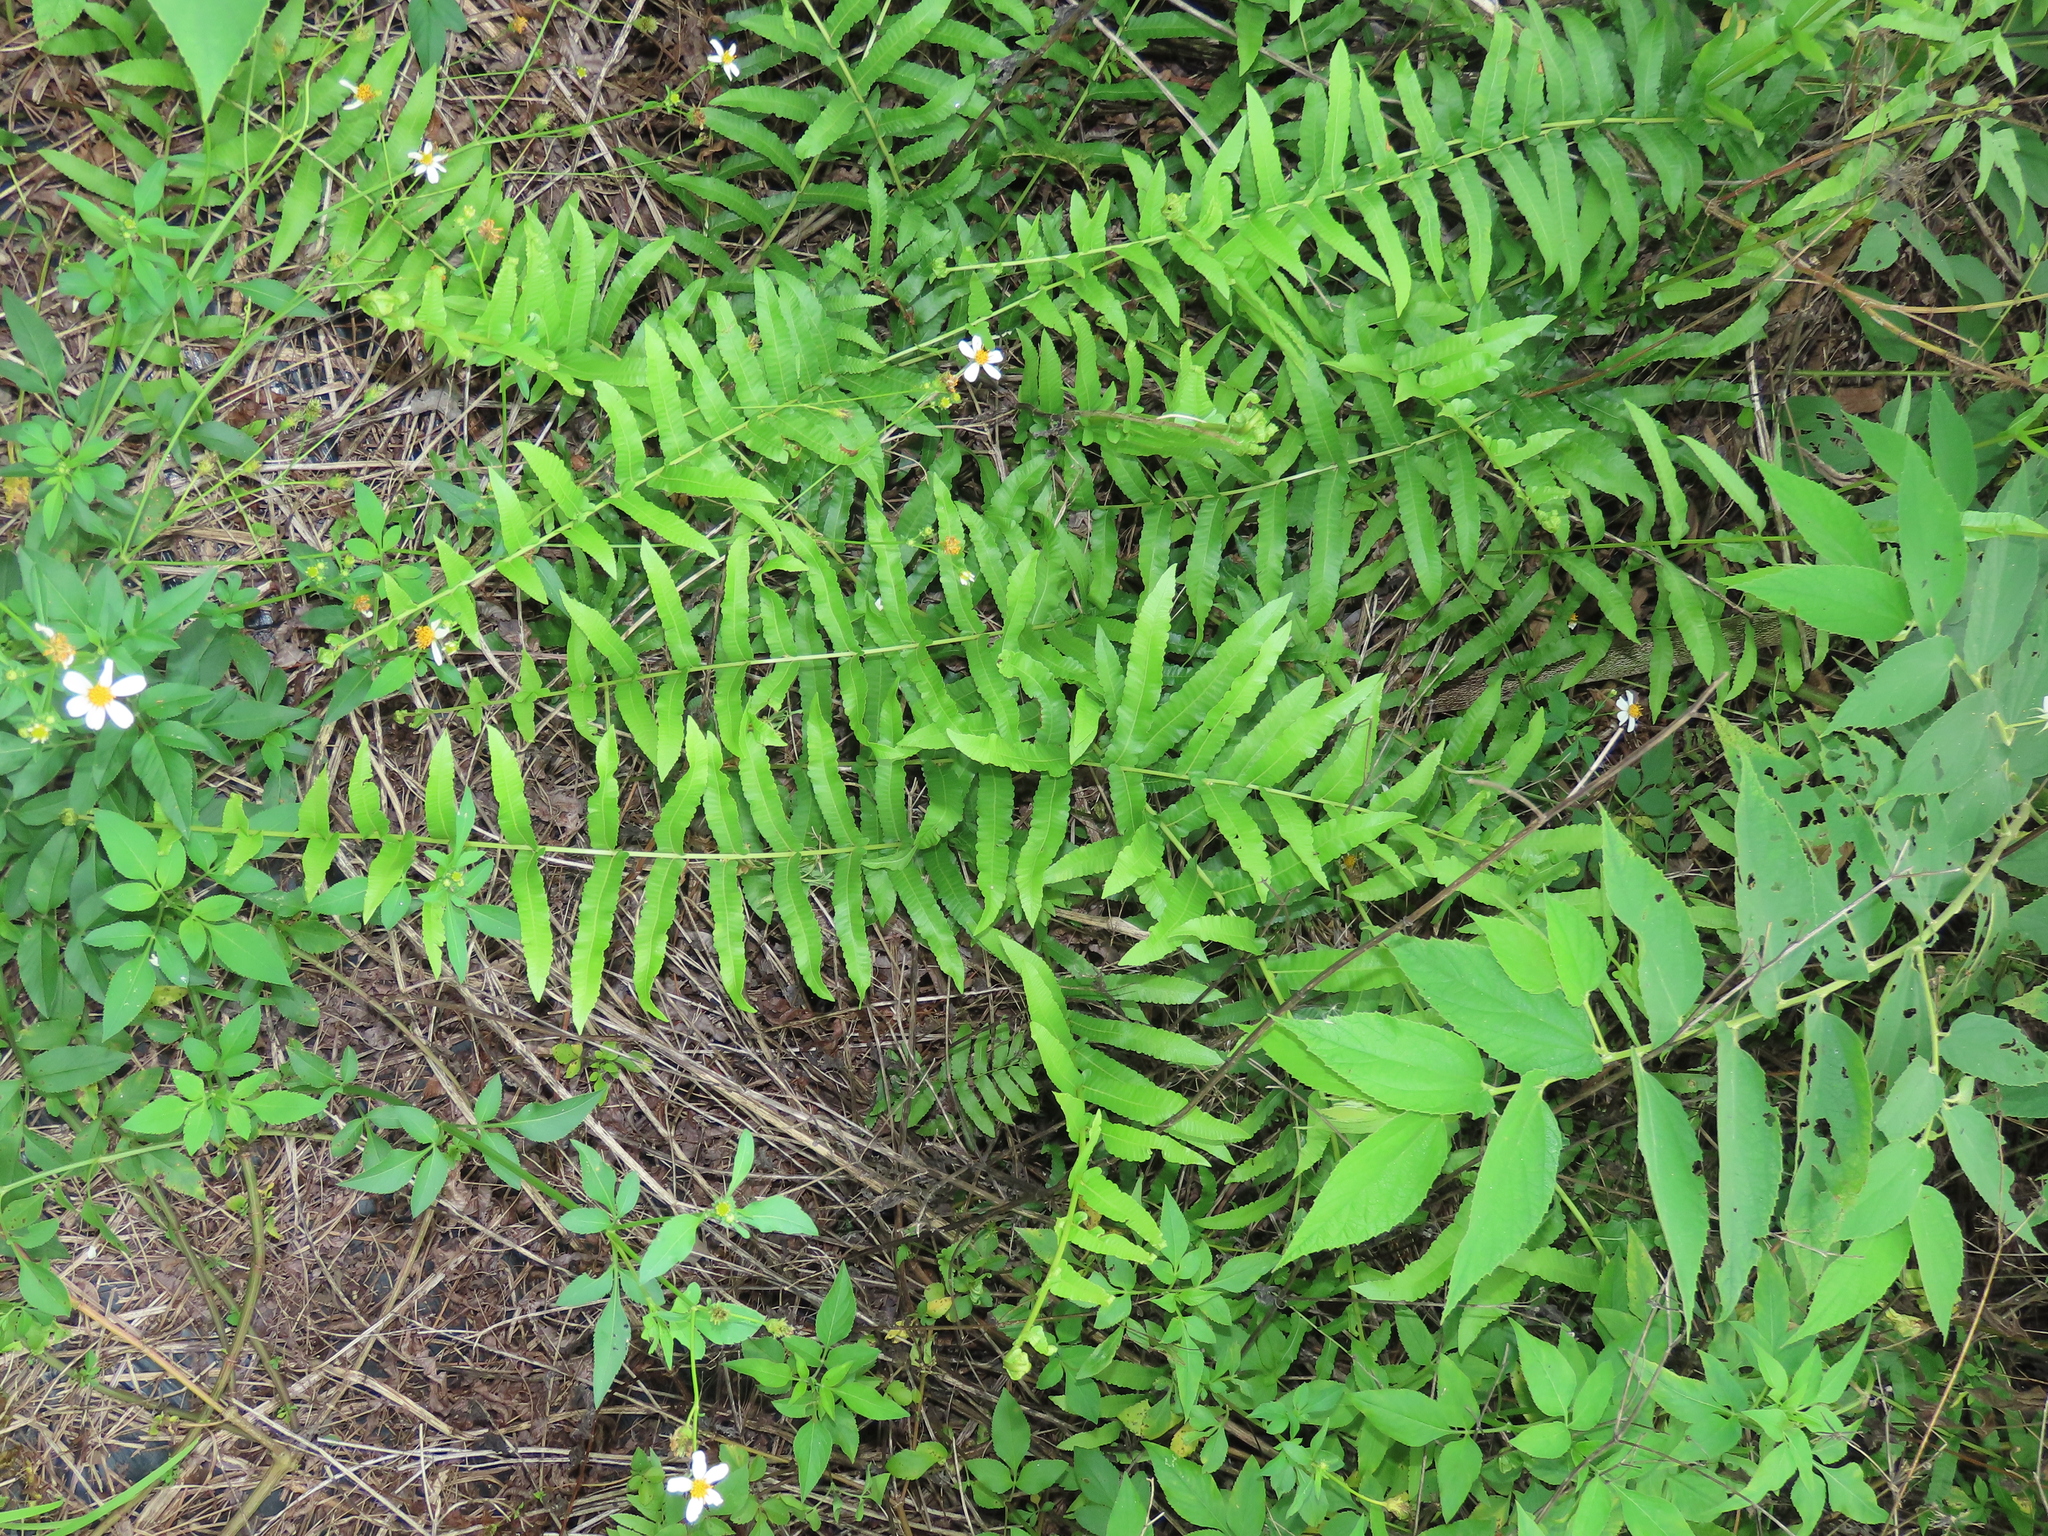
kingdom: Plantae
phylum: Tracheophyta
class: Polypodiopsida
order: Polypodiales
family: Thelypteridaceae
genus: Ampelopteris
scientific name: Ampelopteris prolifera
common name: Riverine scrambler
